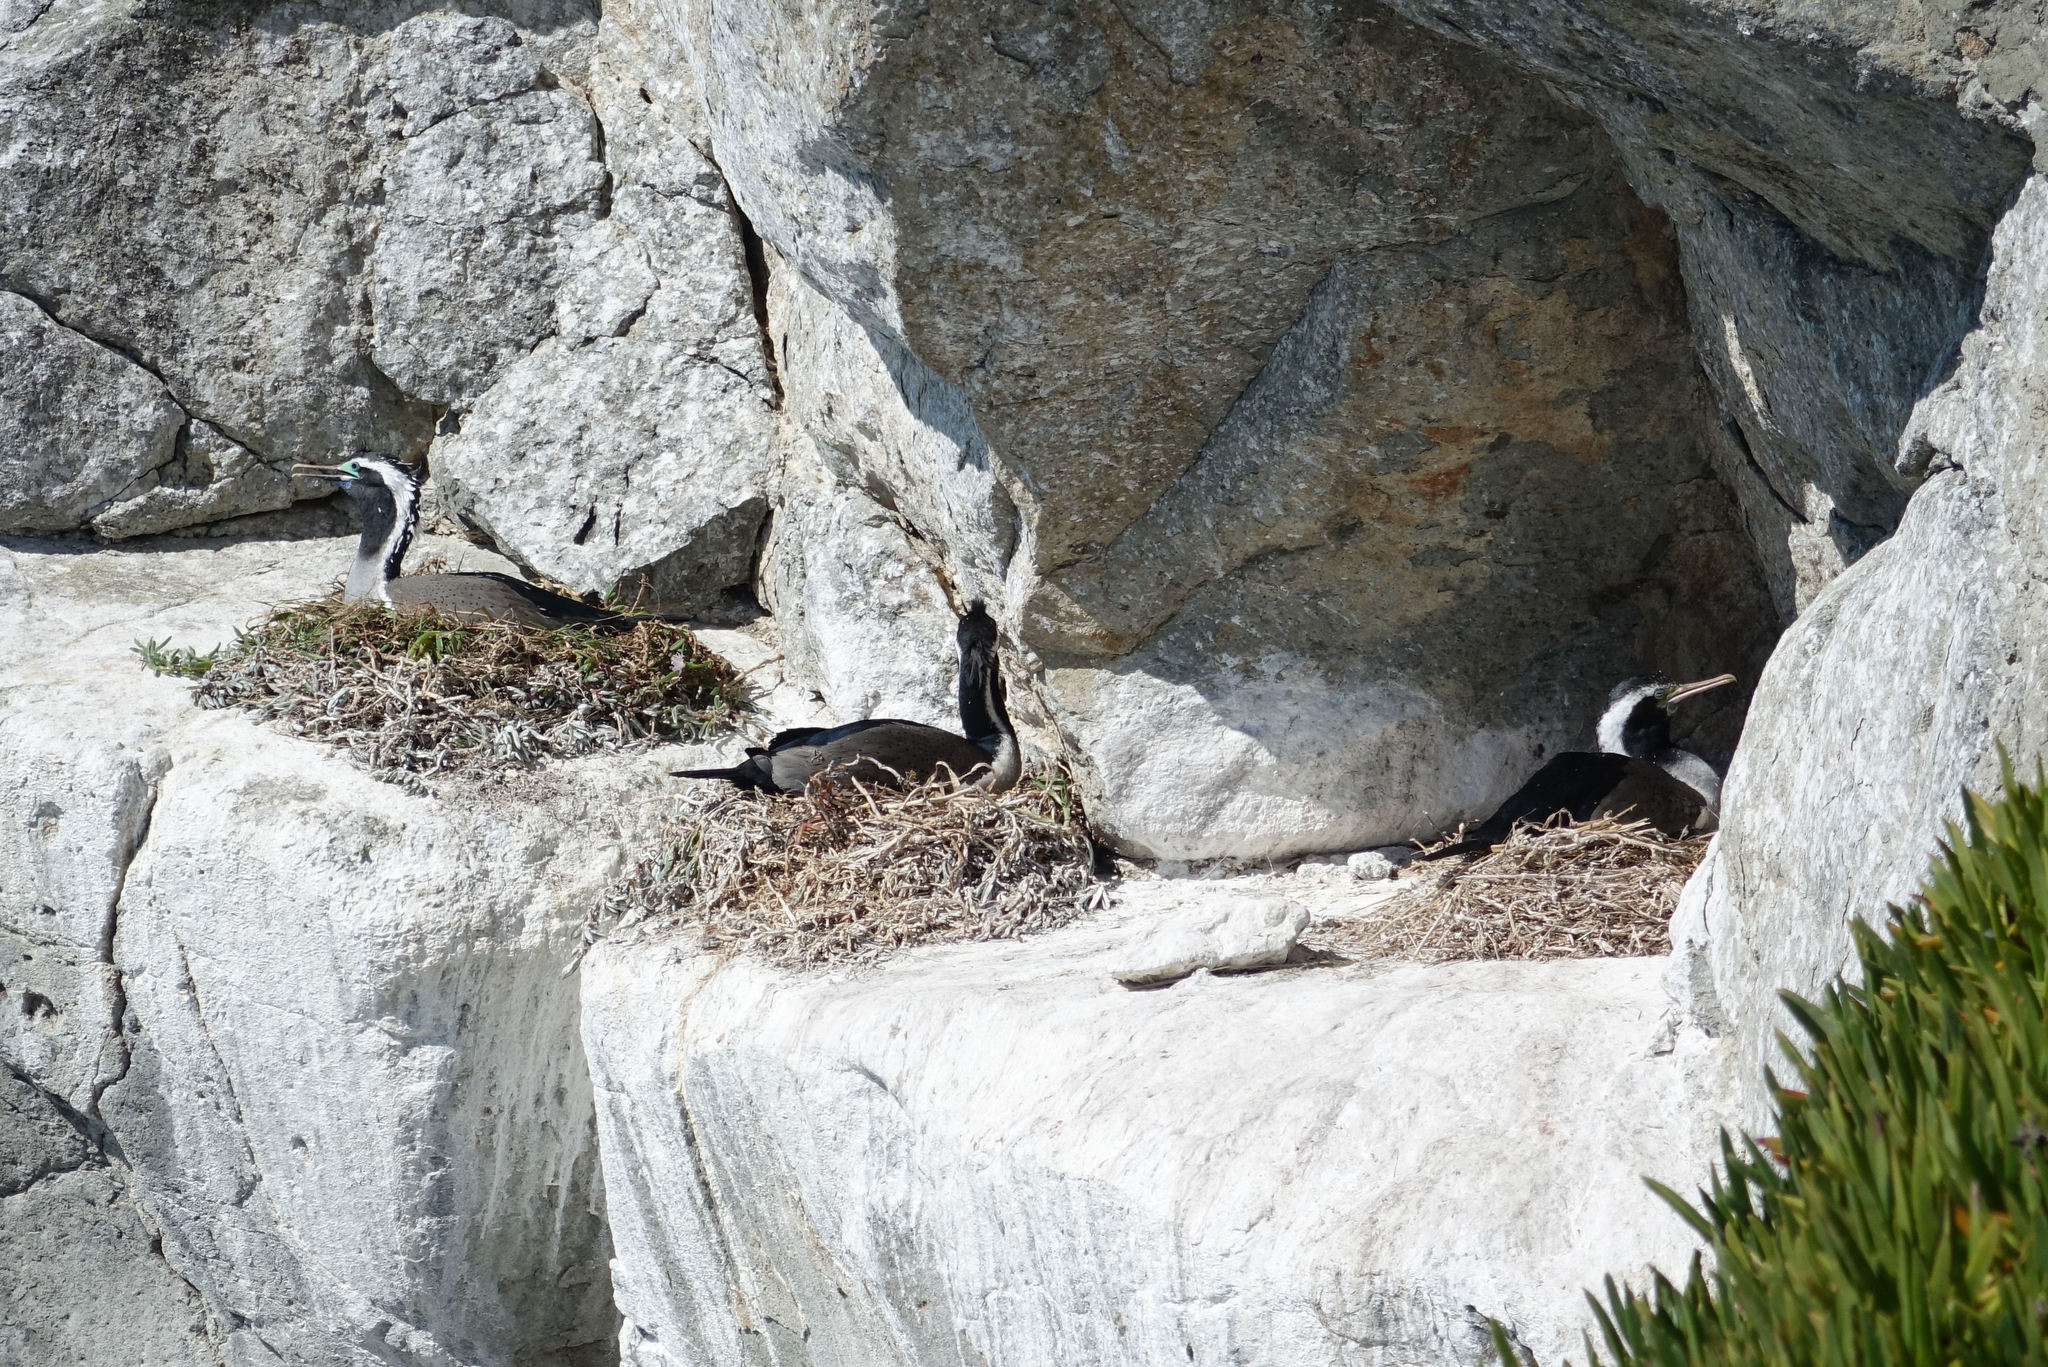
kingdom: Animalia
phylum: Chordata
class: Aves
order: Suliformes
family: Phalacrocoracidae
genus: Phalacrocorax
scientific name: Phalacrocorax punctatus
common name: Spotted shag
